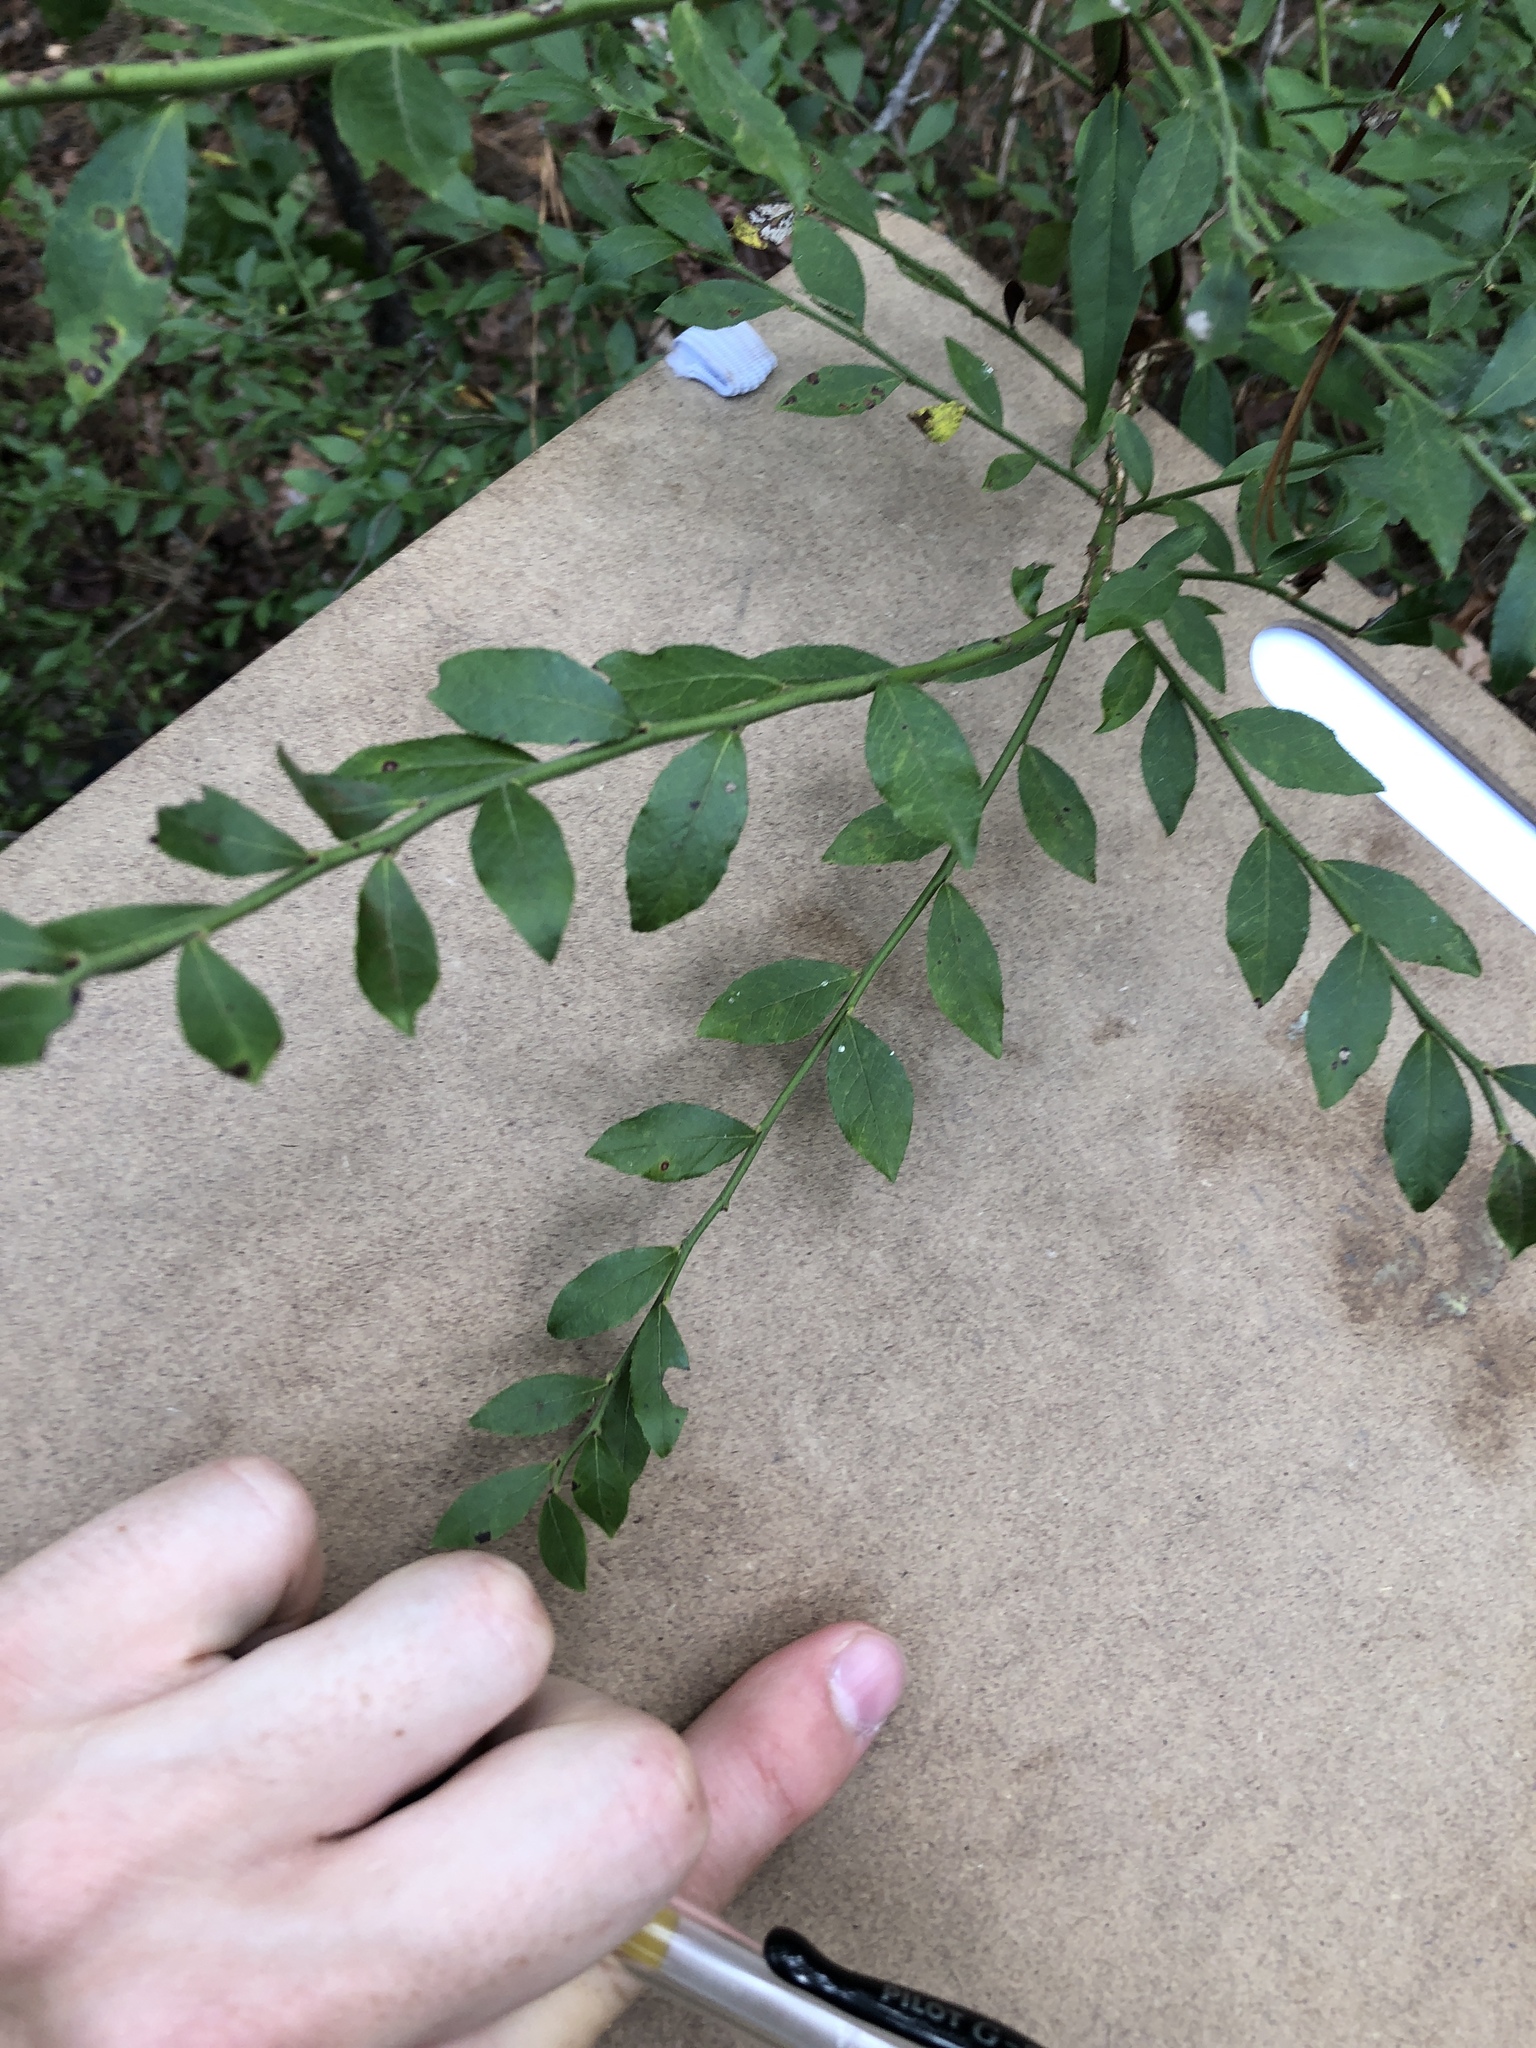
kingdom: Plantae
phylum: Tracheophyta
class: Magnoliopsida
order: Ericales
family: Ericaceae
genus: Vaccinium
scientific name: Vaccinium corymbosum
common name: Blueberry
